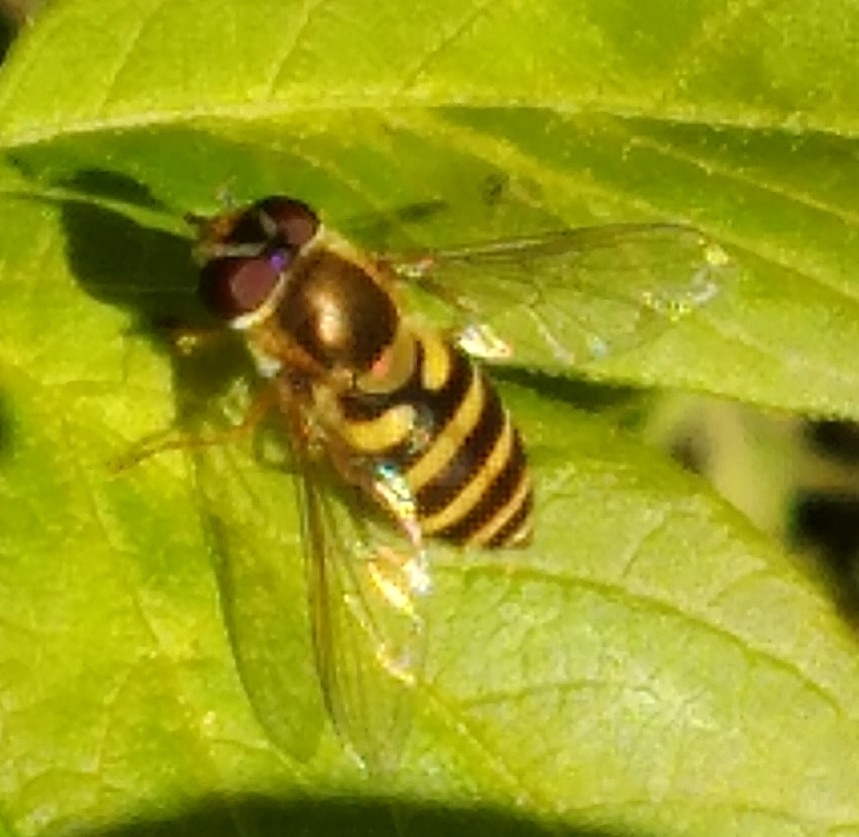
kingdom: Animalia
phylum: Arthropoda
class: Insecta
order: Diptera
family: Syrphidae
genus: Syrphus
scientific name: Syrphus
